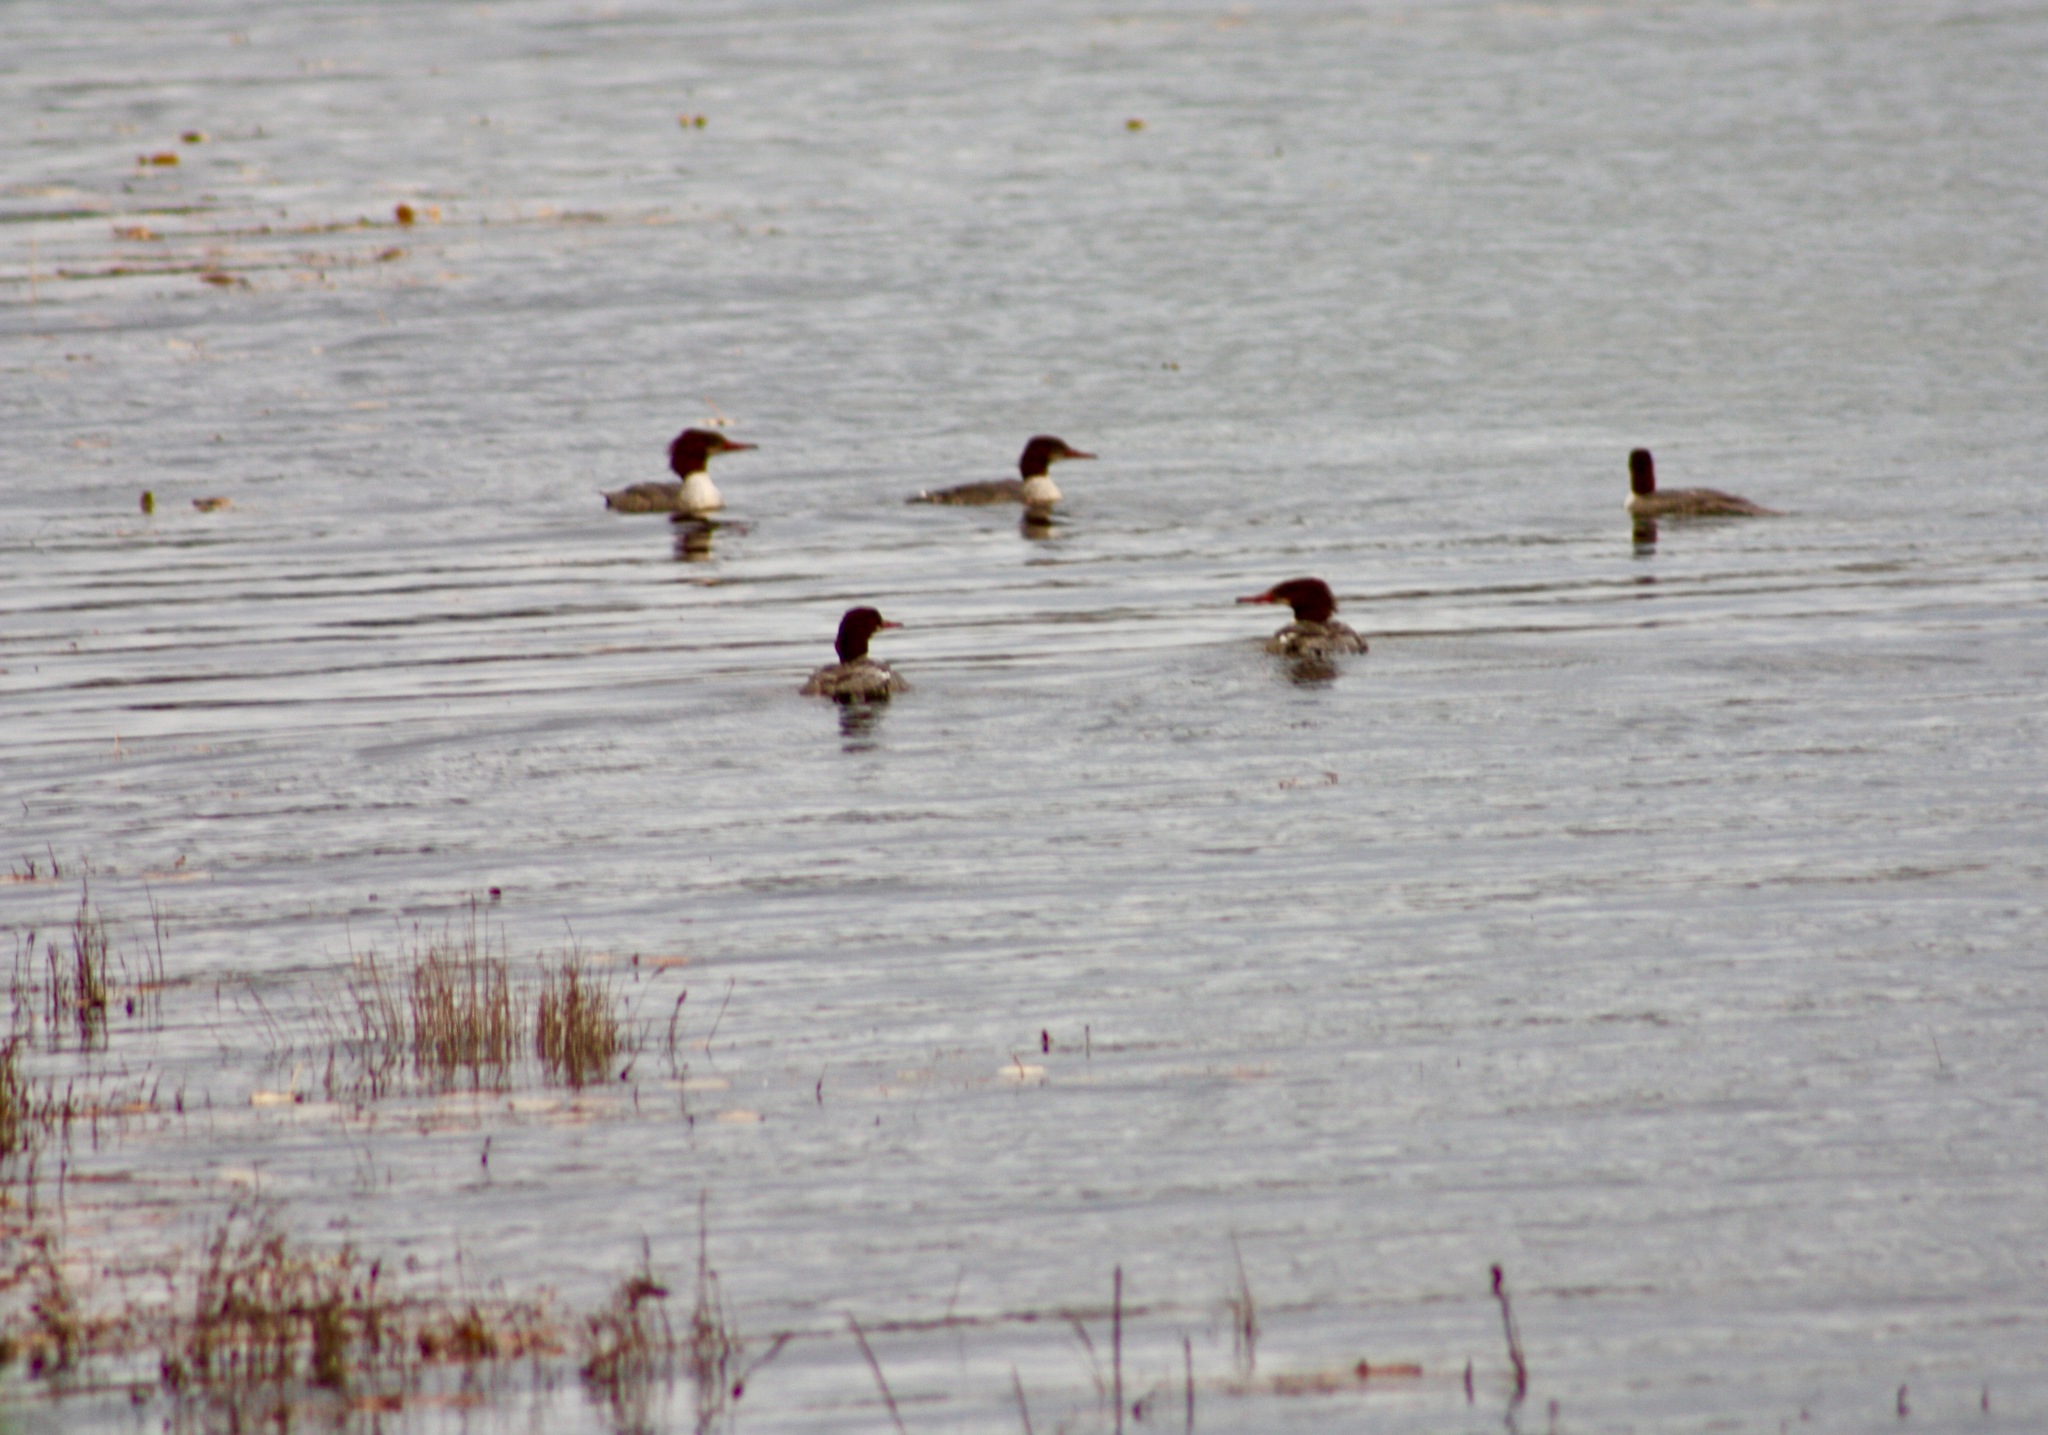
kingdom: Animalia
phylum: Chordata
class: Aves
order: Anseriformes
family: Anatidae
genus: Mergus
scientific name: Mergus merganser
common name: Common merganser
